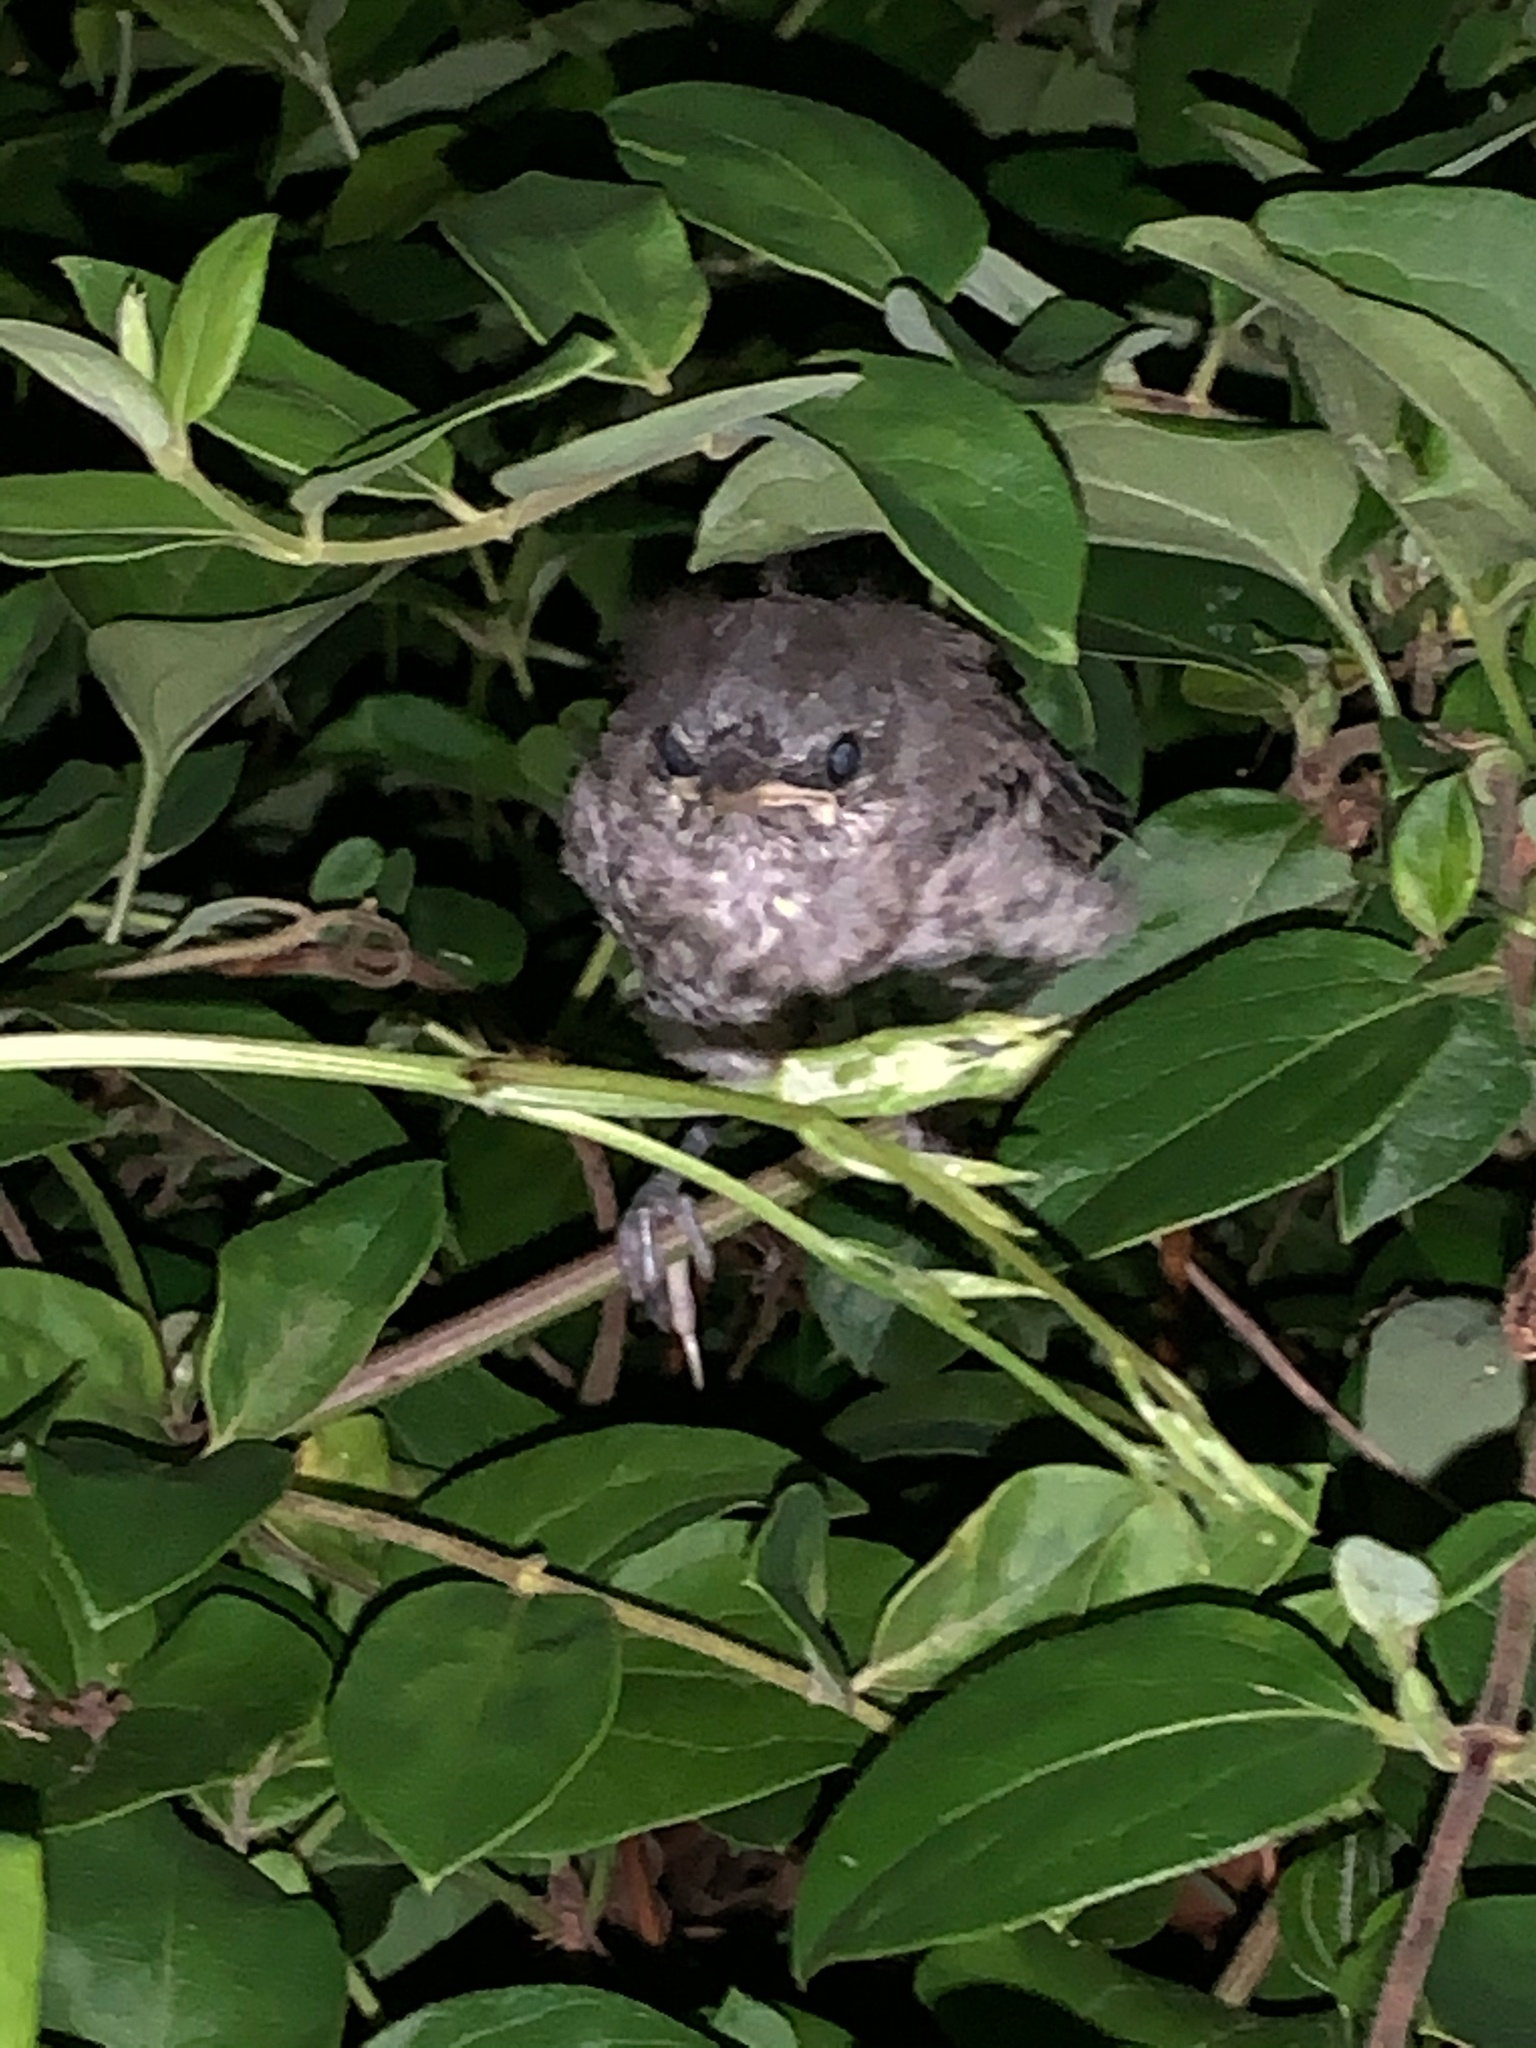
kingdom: Animalia
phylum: Chordata
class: Aves
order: Passeriformes
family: Mimidae
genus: Mimus
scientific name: Mimus polyglottos
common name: Northern mockingbird
